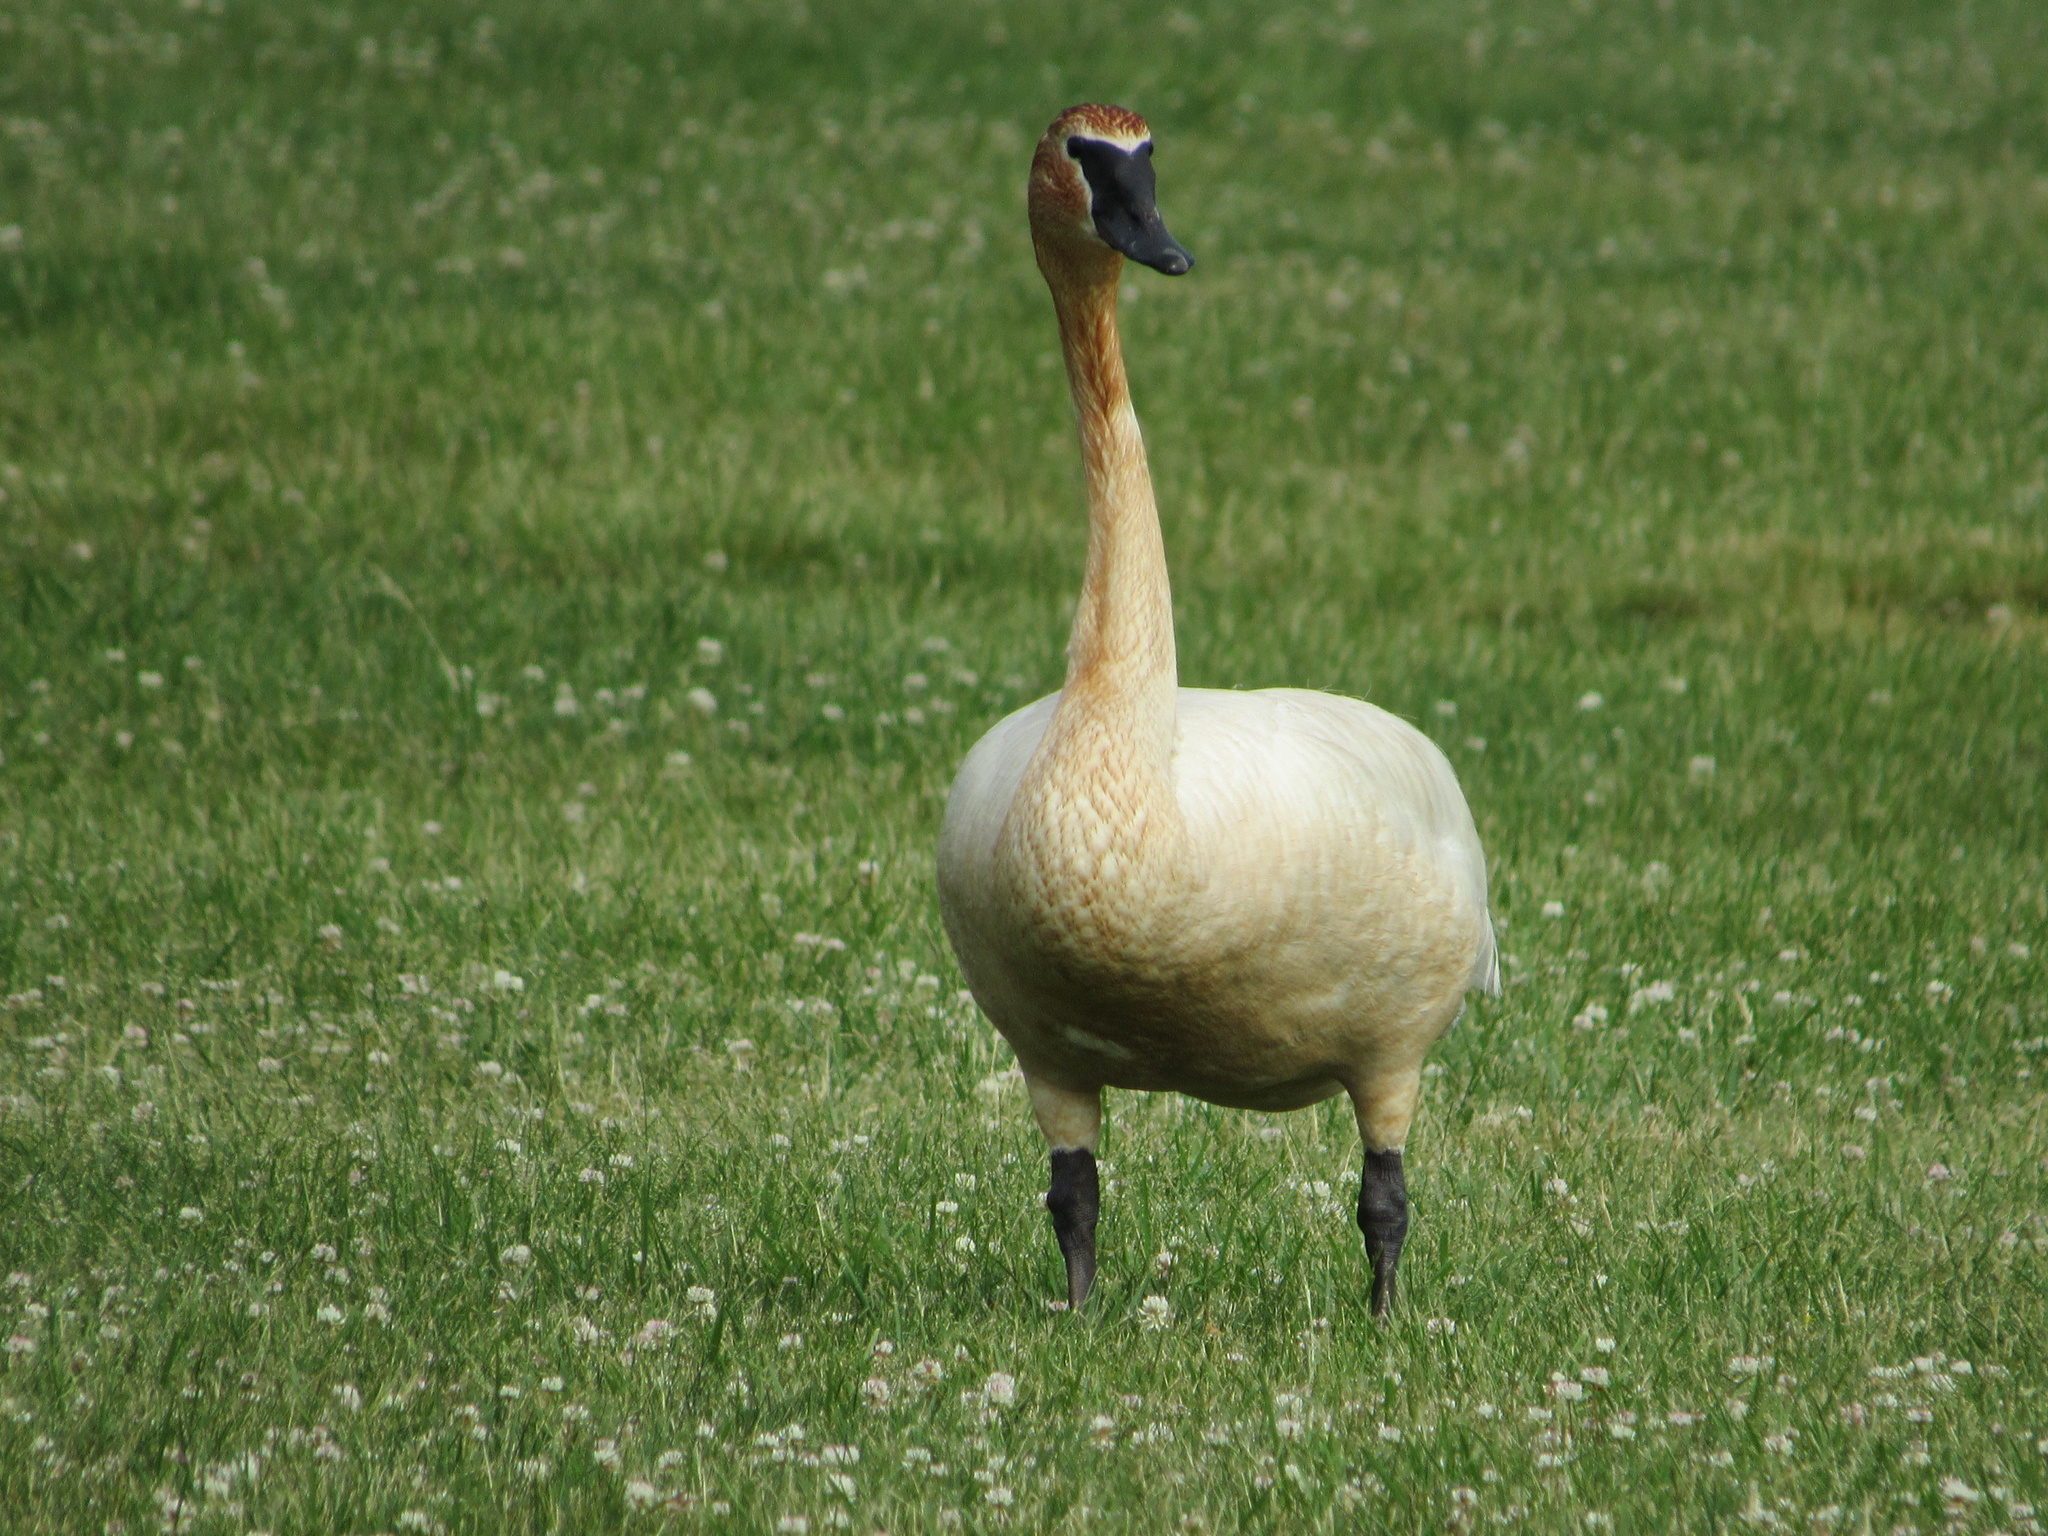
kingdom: Animalia
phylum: Chordata
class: Aves
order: Anseriformes
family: Anatidae
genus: Cygnus
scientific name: Cygnus buccinator
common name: Trumpeter swan
